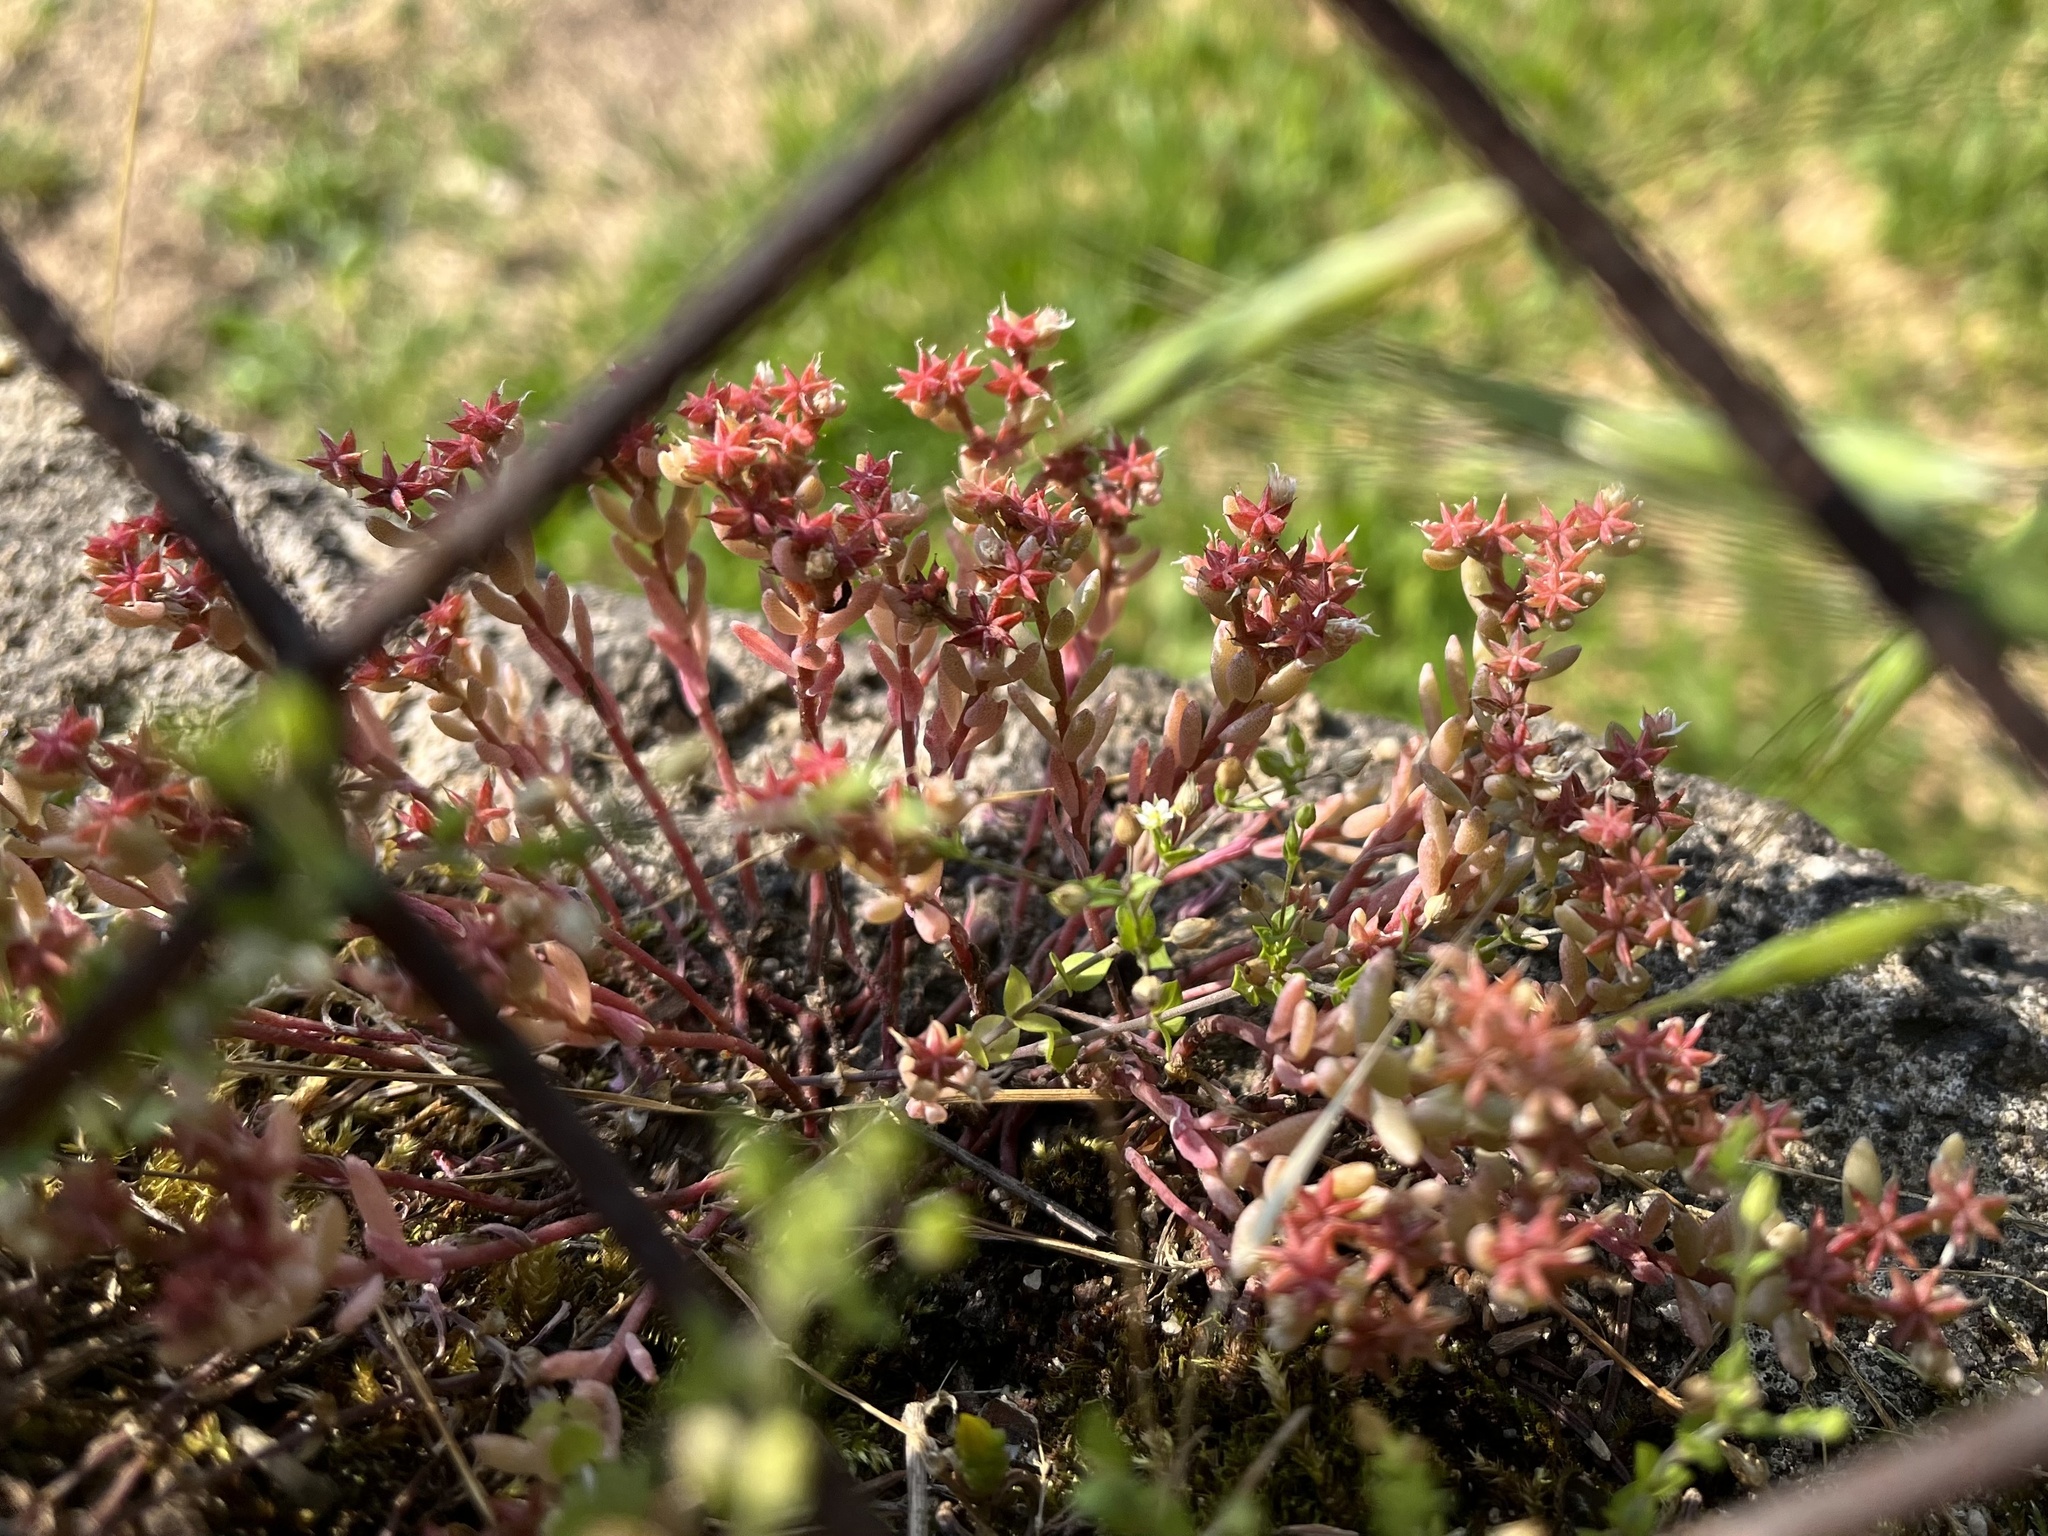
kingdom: Plantae
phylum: Tracheophyta
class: Magnoliopsida
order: Saxifragales
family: Crassulaceae
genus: Sedum
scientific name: Sedum hispanicum
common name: Spanish stonecrop
